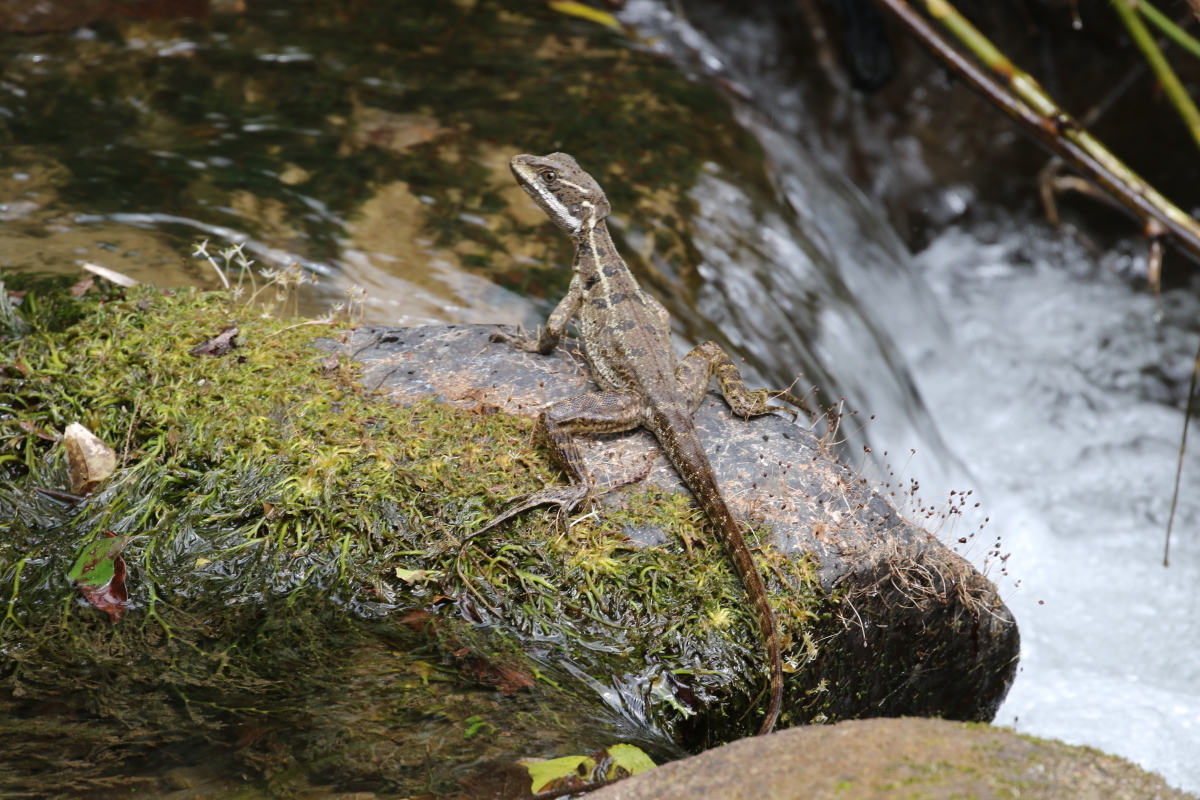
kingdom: Animalia
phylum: Chordata
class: Squamata
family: Corytophanidae
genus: Basiliscus
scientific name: Basiliscus basiliscus
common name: Common basilisk
